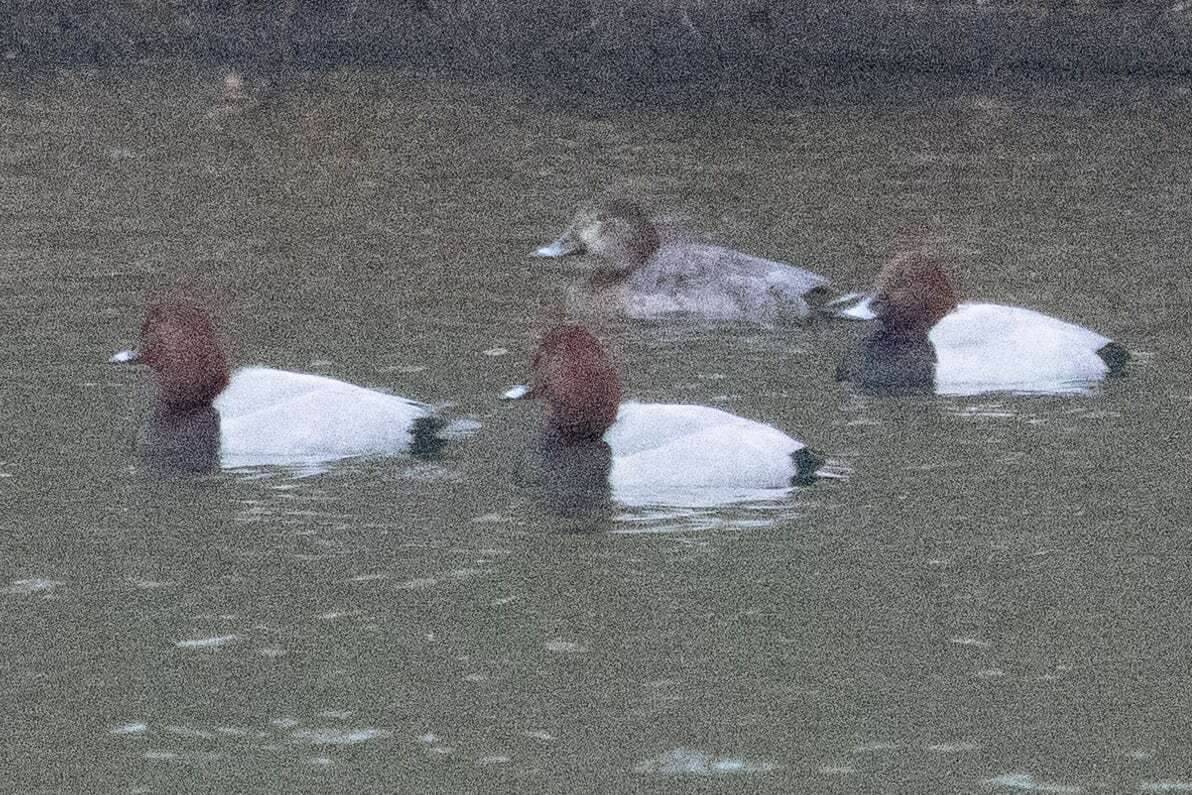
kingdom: Animalia
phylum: Chordata
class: Aves
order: Anseriformes
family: Anatidae
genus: Aythya
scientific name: Aythya ferina
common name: Common pochard
